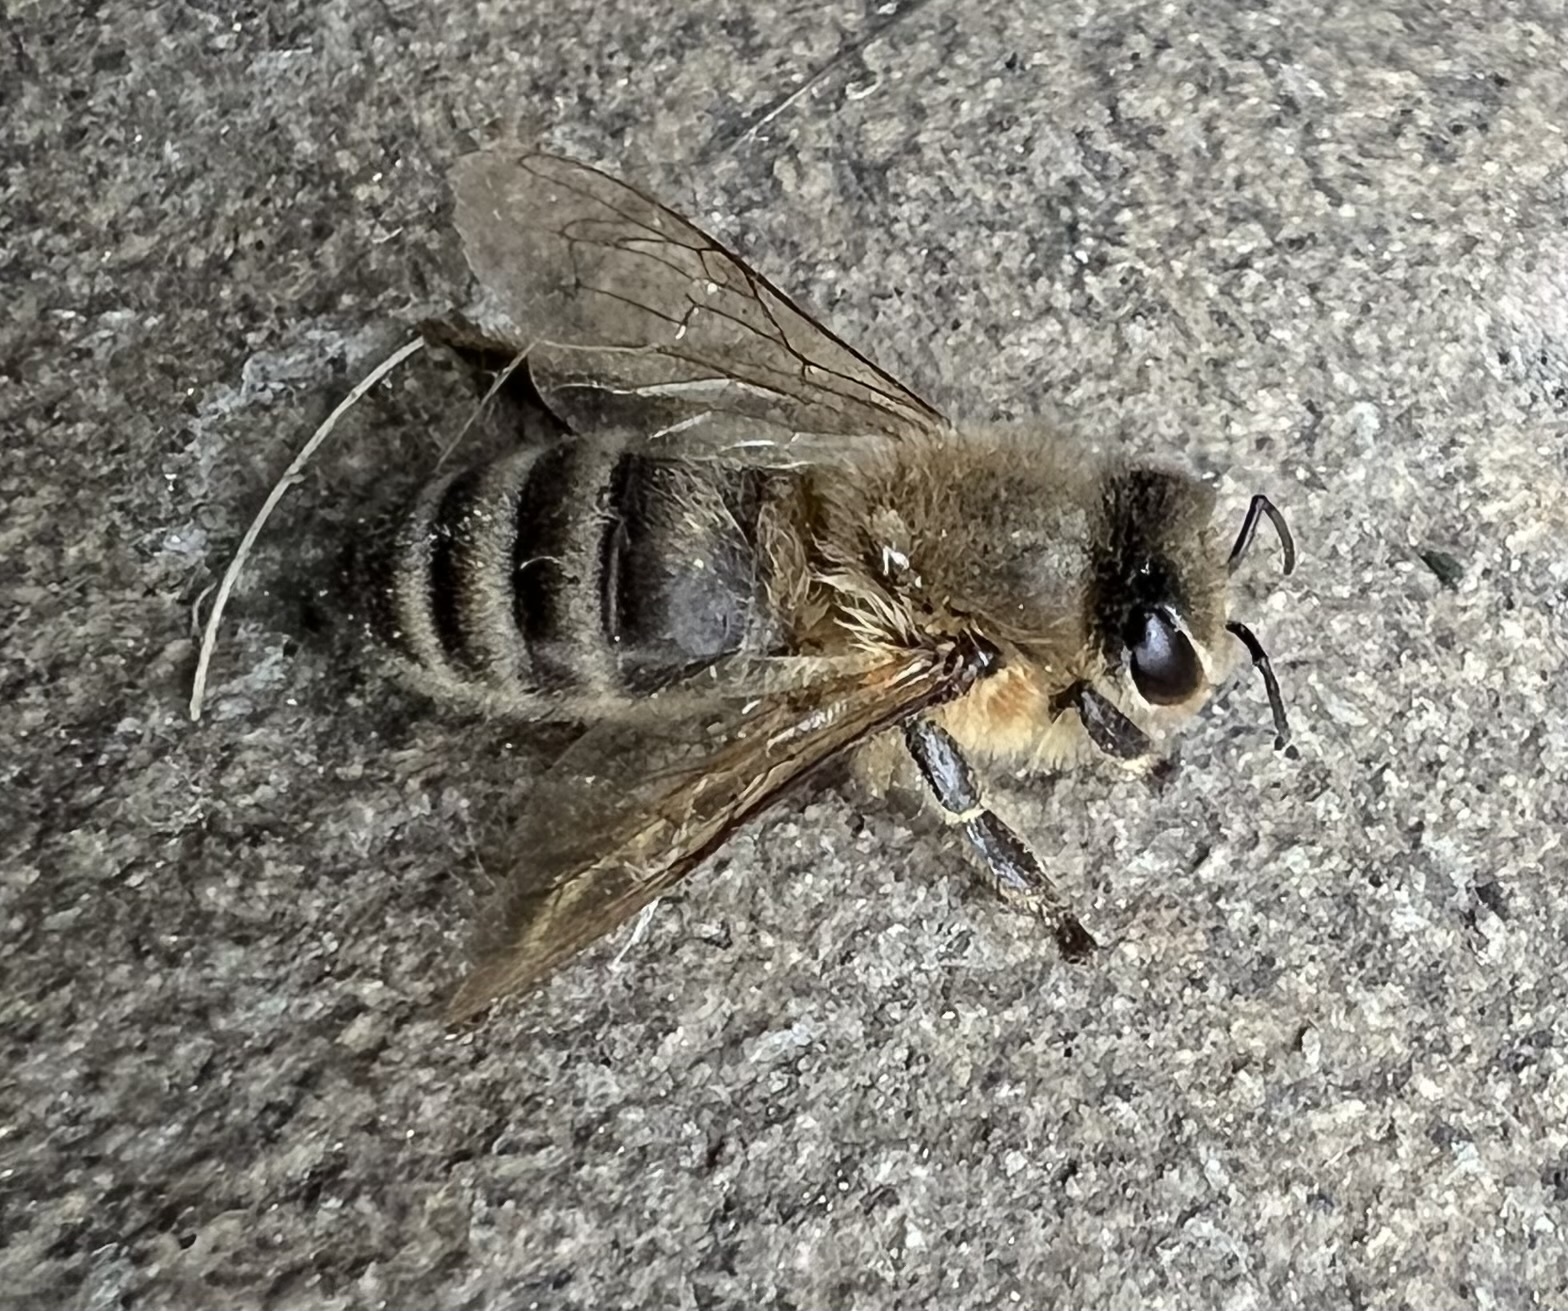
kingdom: Animalia
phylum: Arthropoda
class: Insecta
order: Hymenoptera
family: Apidae
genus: Apis
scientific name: Apis mellifera
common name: Honey bee
